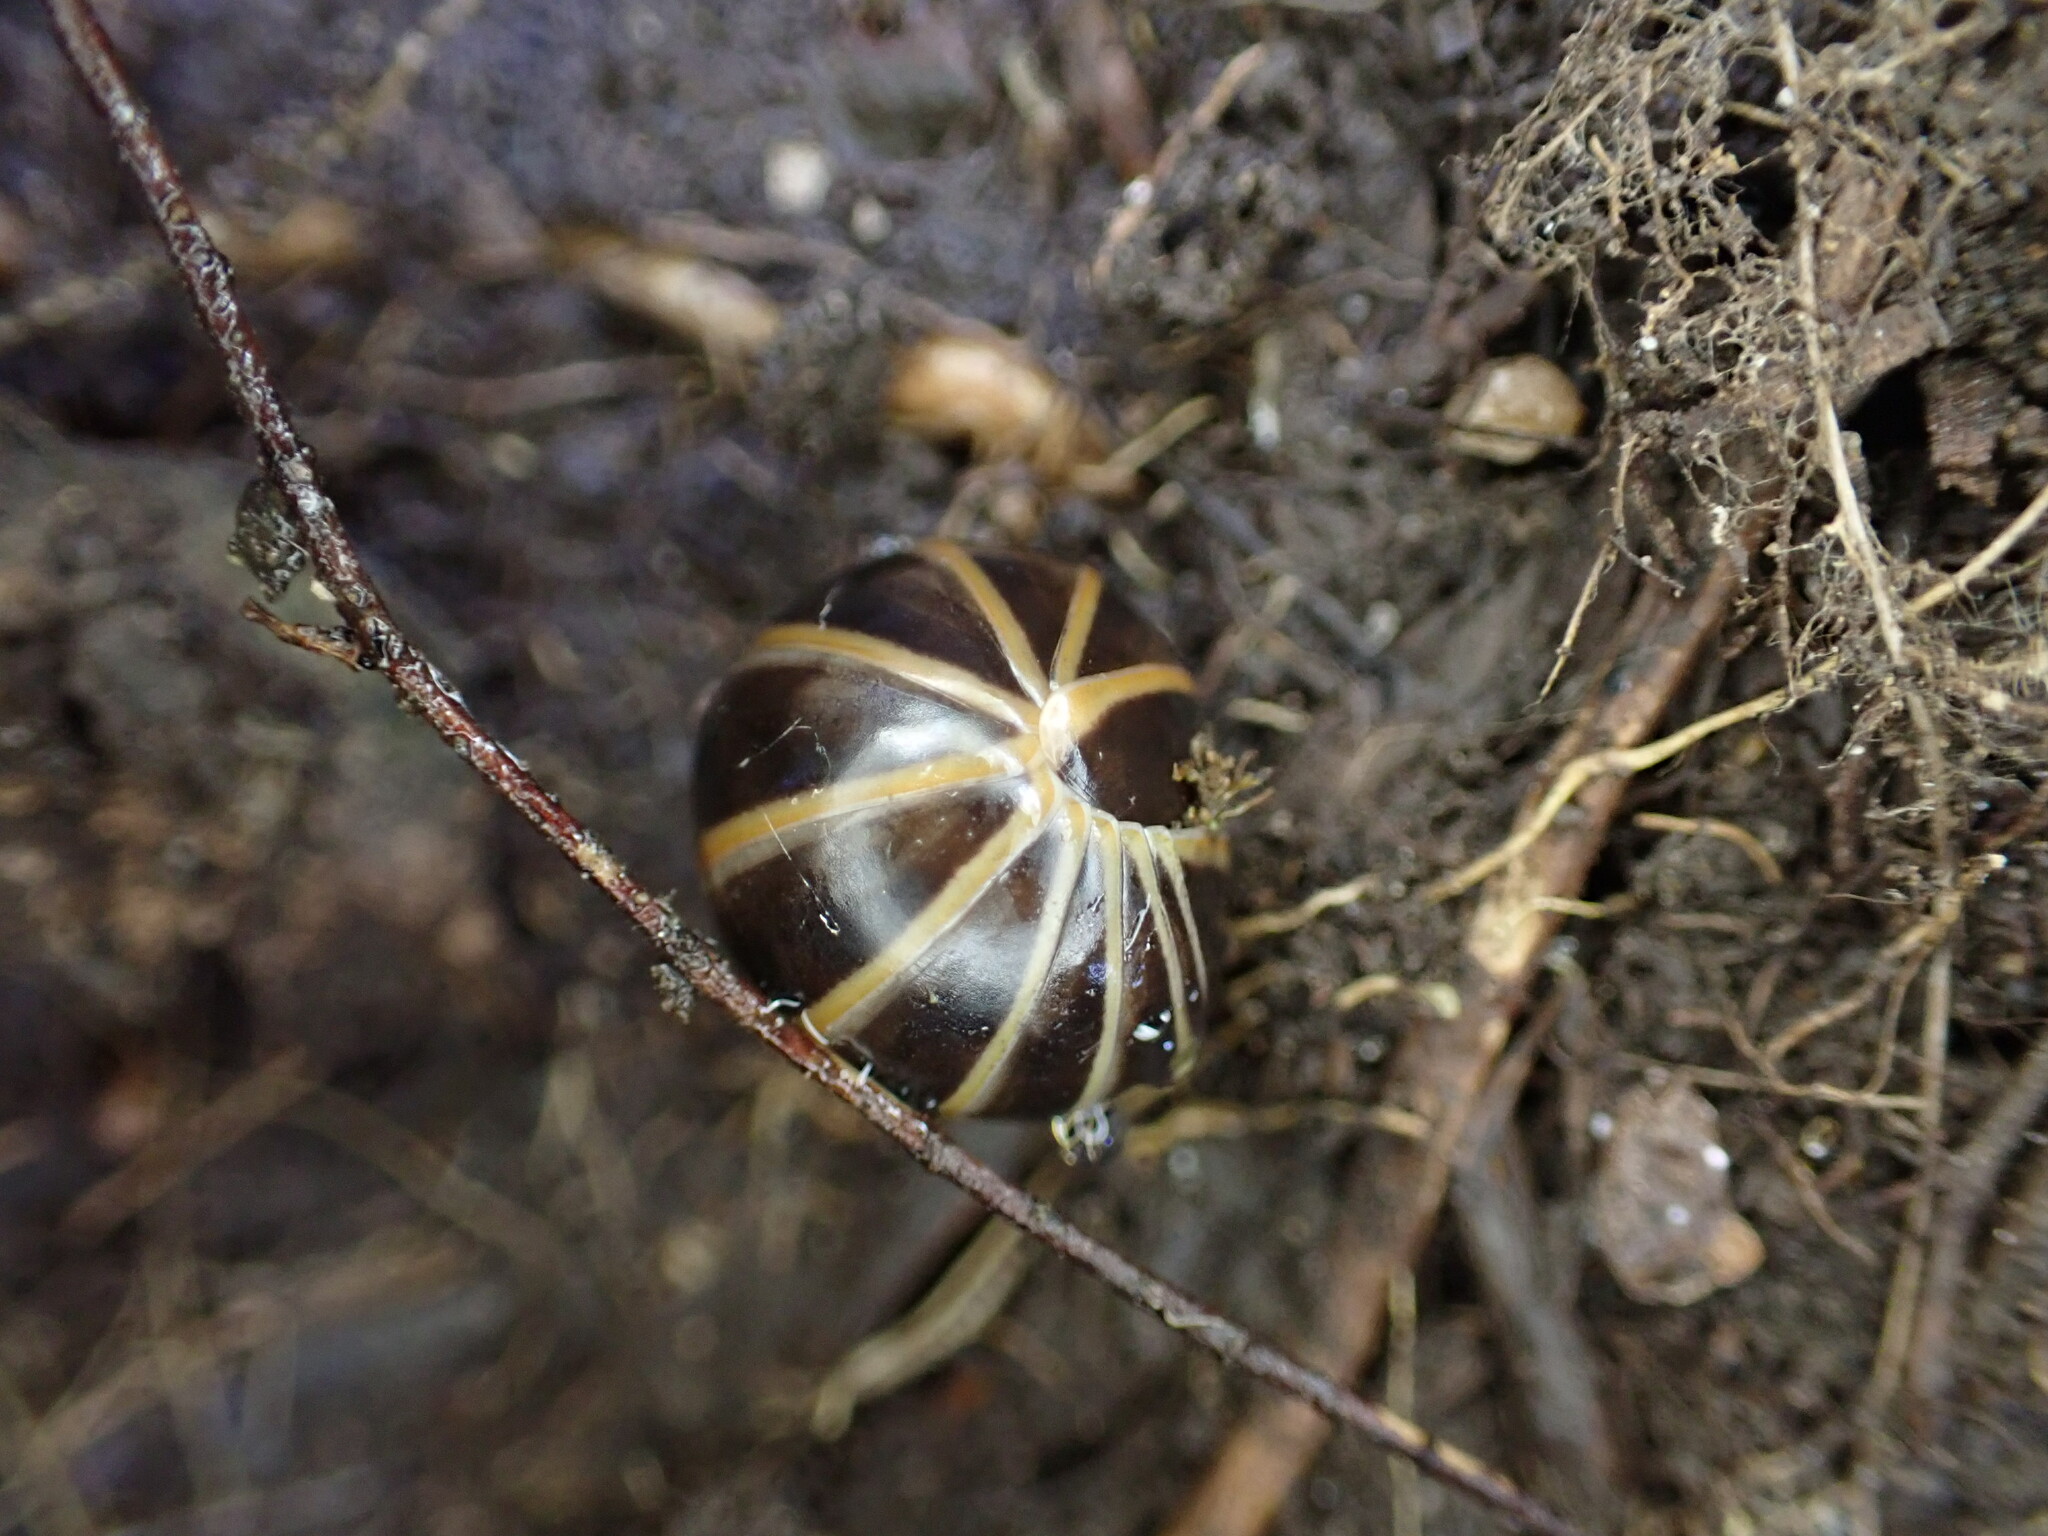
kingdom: Animalia
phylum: Arthropoda
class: Diplopoda
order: Glomerida
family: Glomeridae
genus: Glomeris
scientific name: Glomeris marginata
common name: Bordered pill millipede
